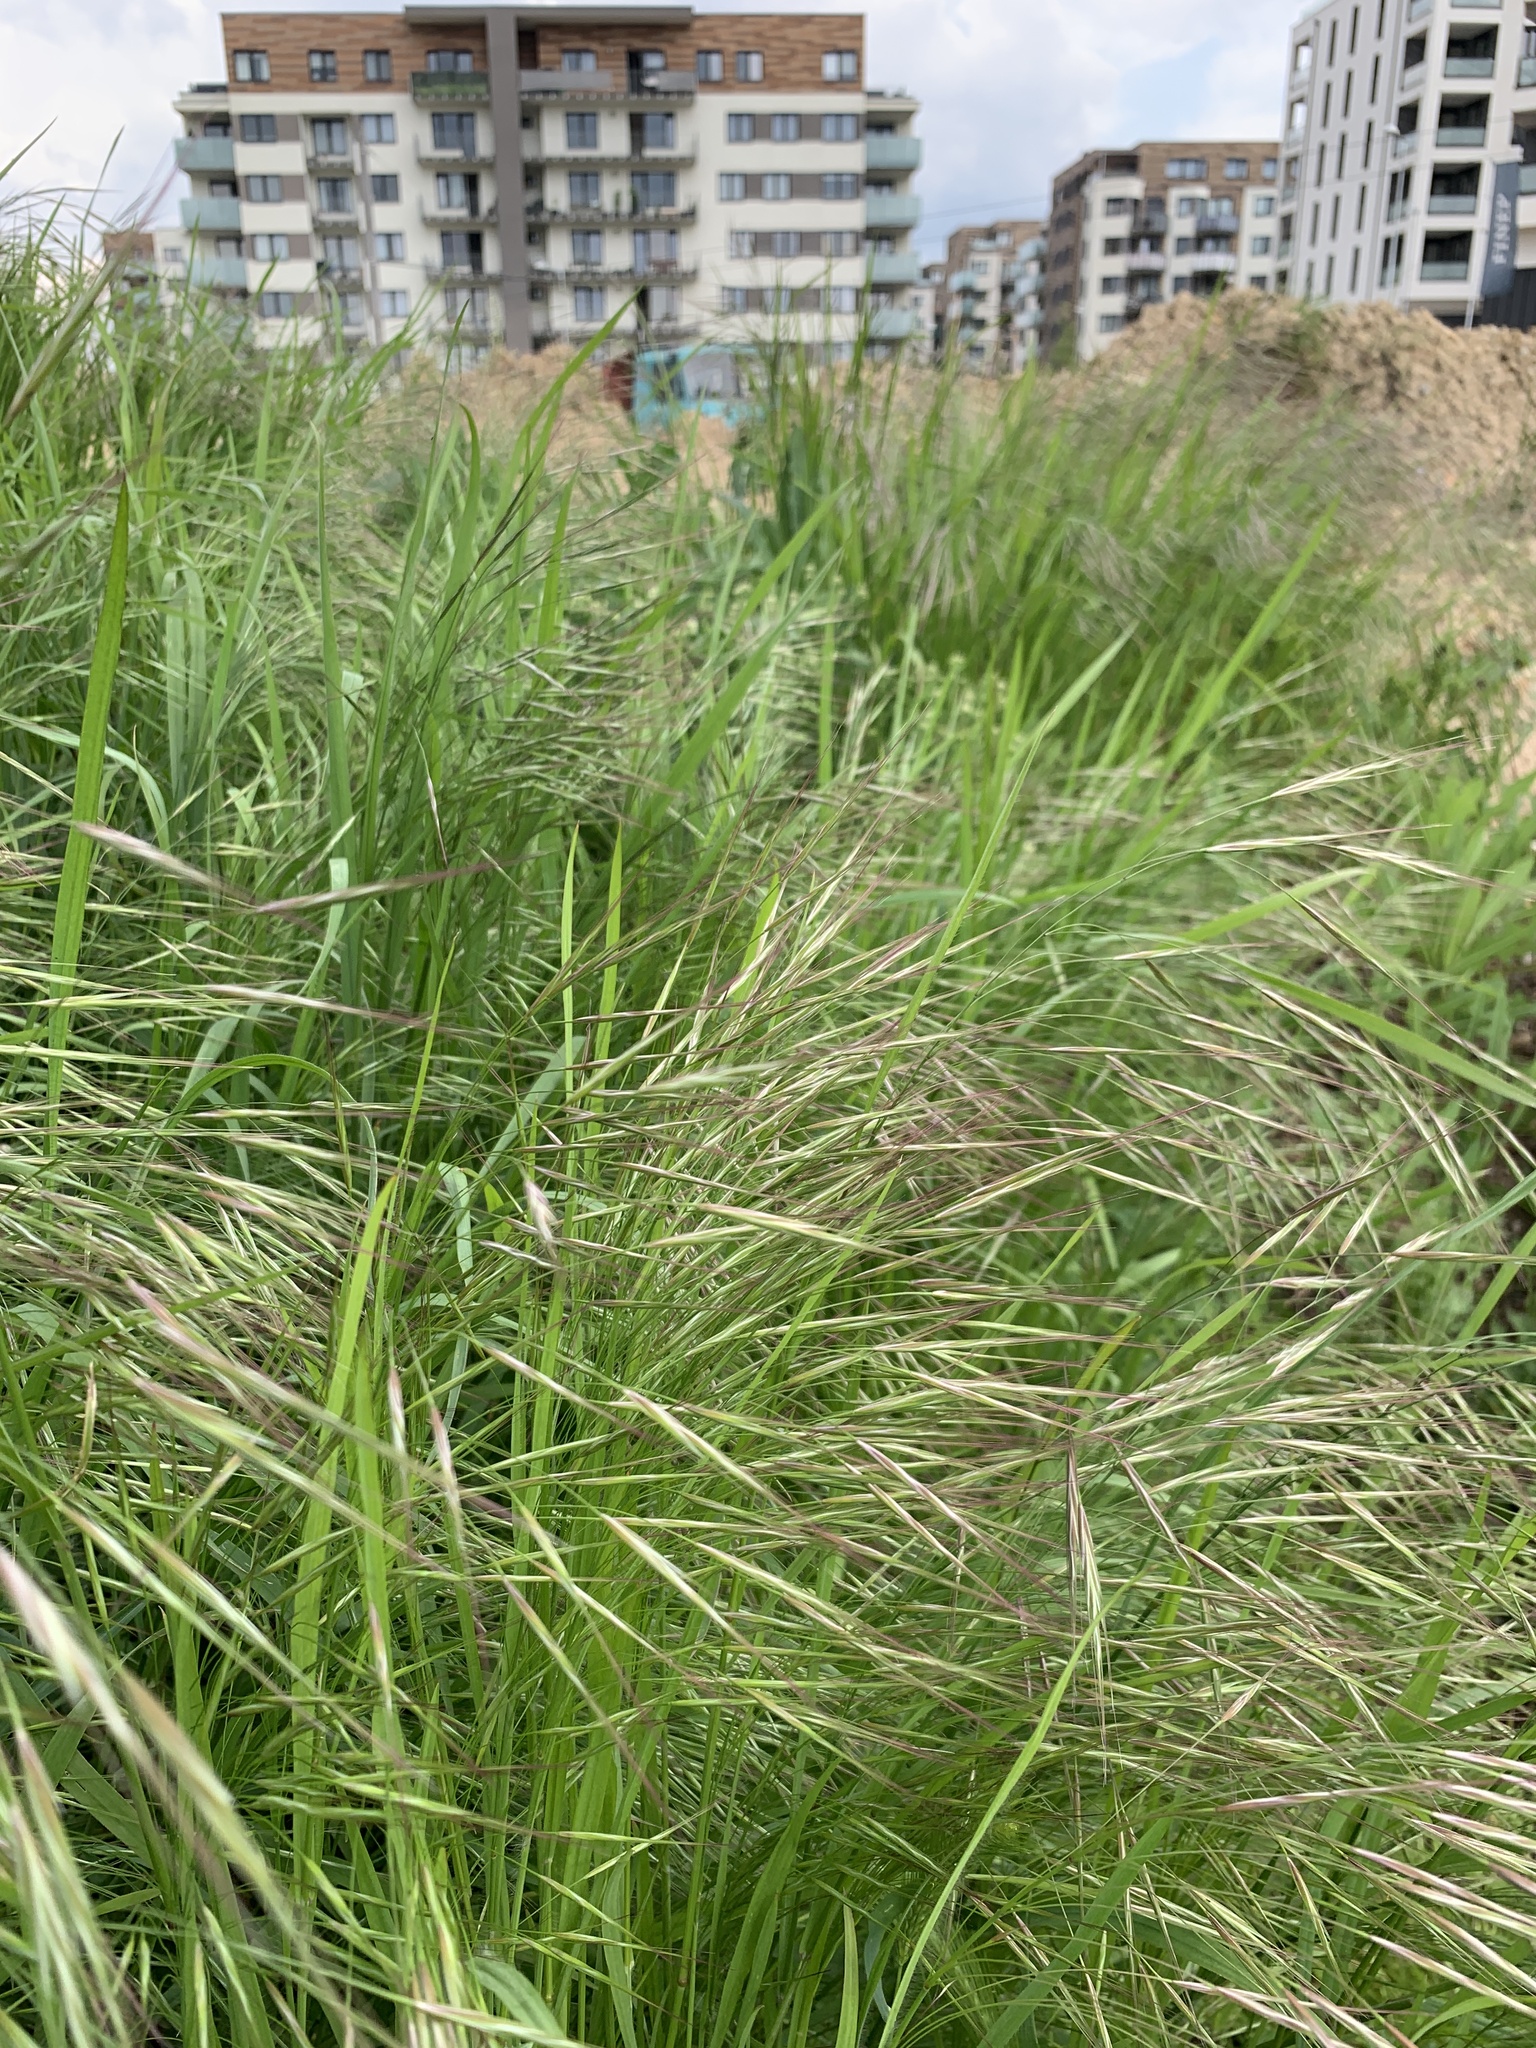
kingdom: Plantae
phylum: Tracheophyta
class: Liliopsida
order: Poales
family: Poaceae
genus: Bromus
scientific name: Bromus sterilis
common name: Poverty brome
